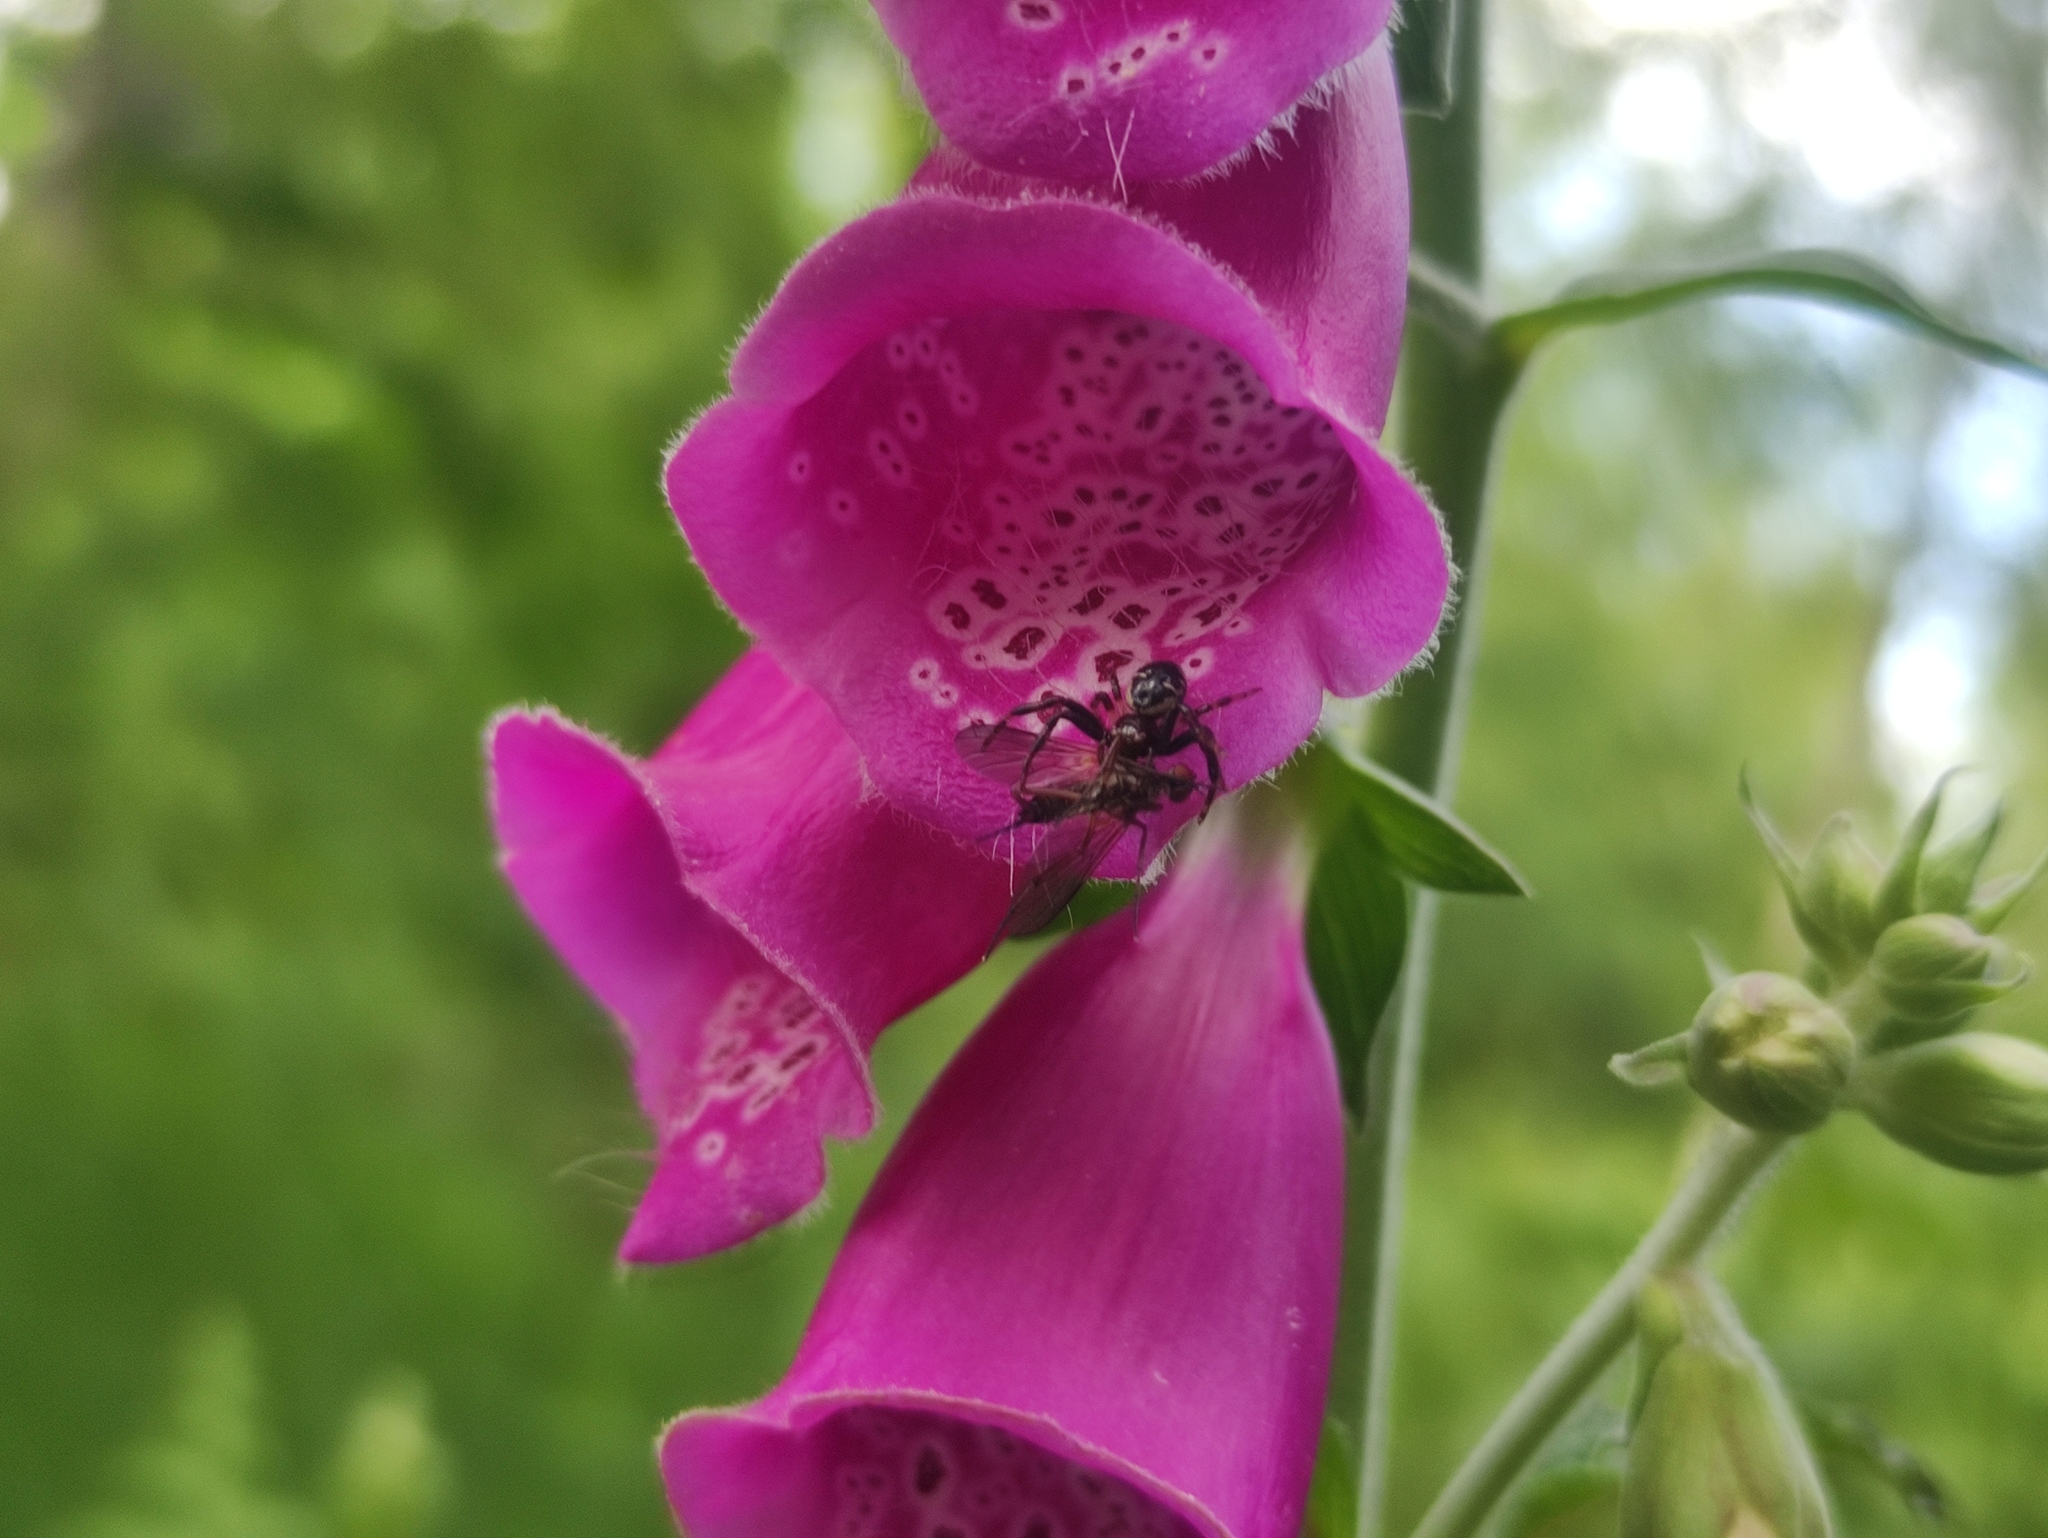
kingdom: Animalia
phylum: Arthropoda
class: Arachnida
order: Araneae
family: Thomisidae
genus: Synema
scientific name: Synema globosum
